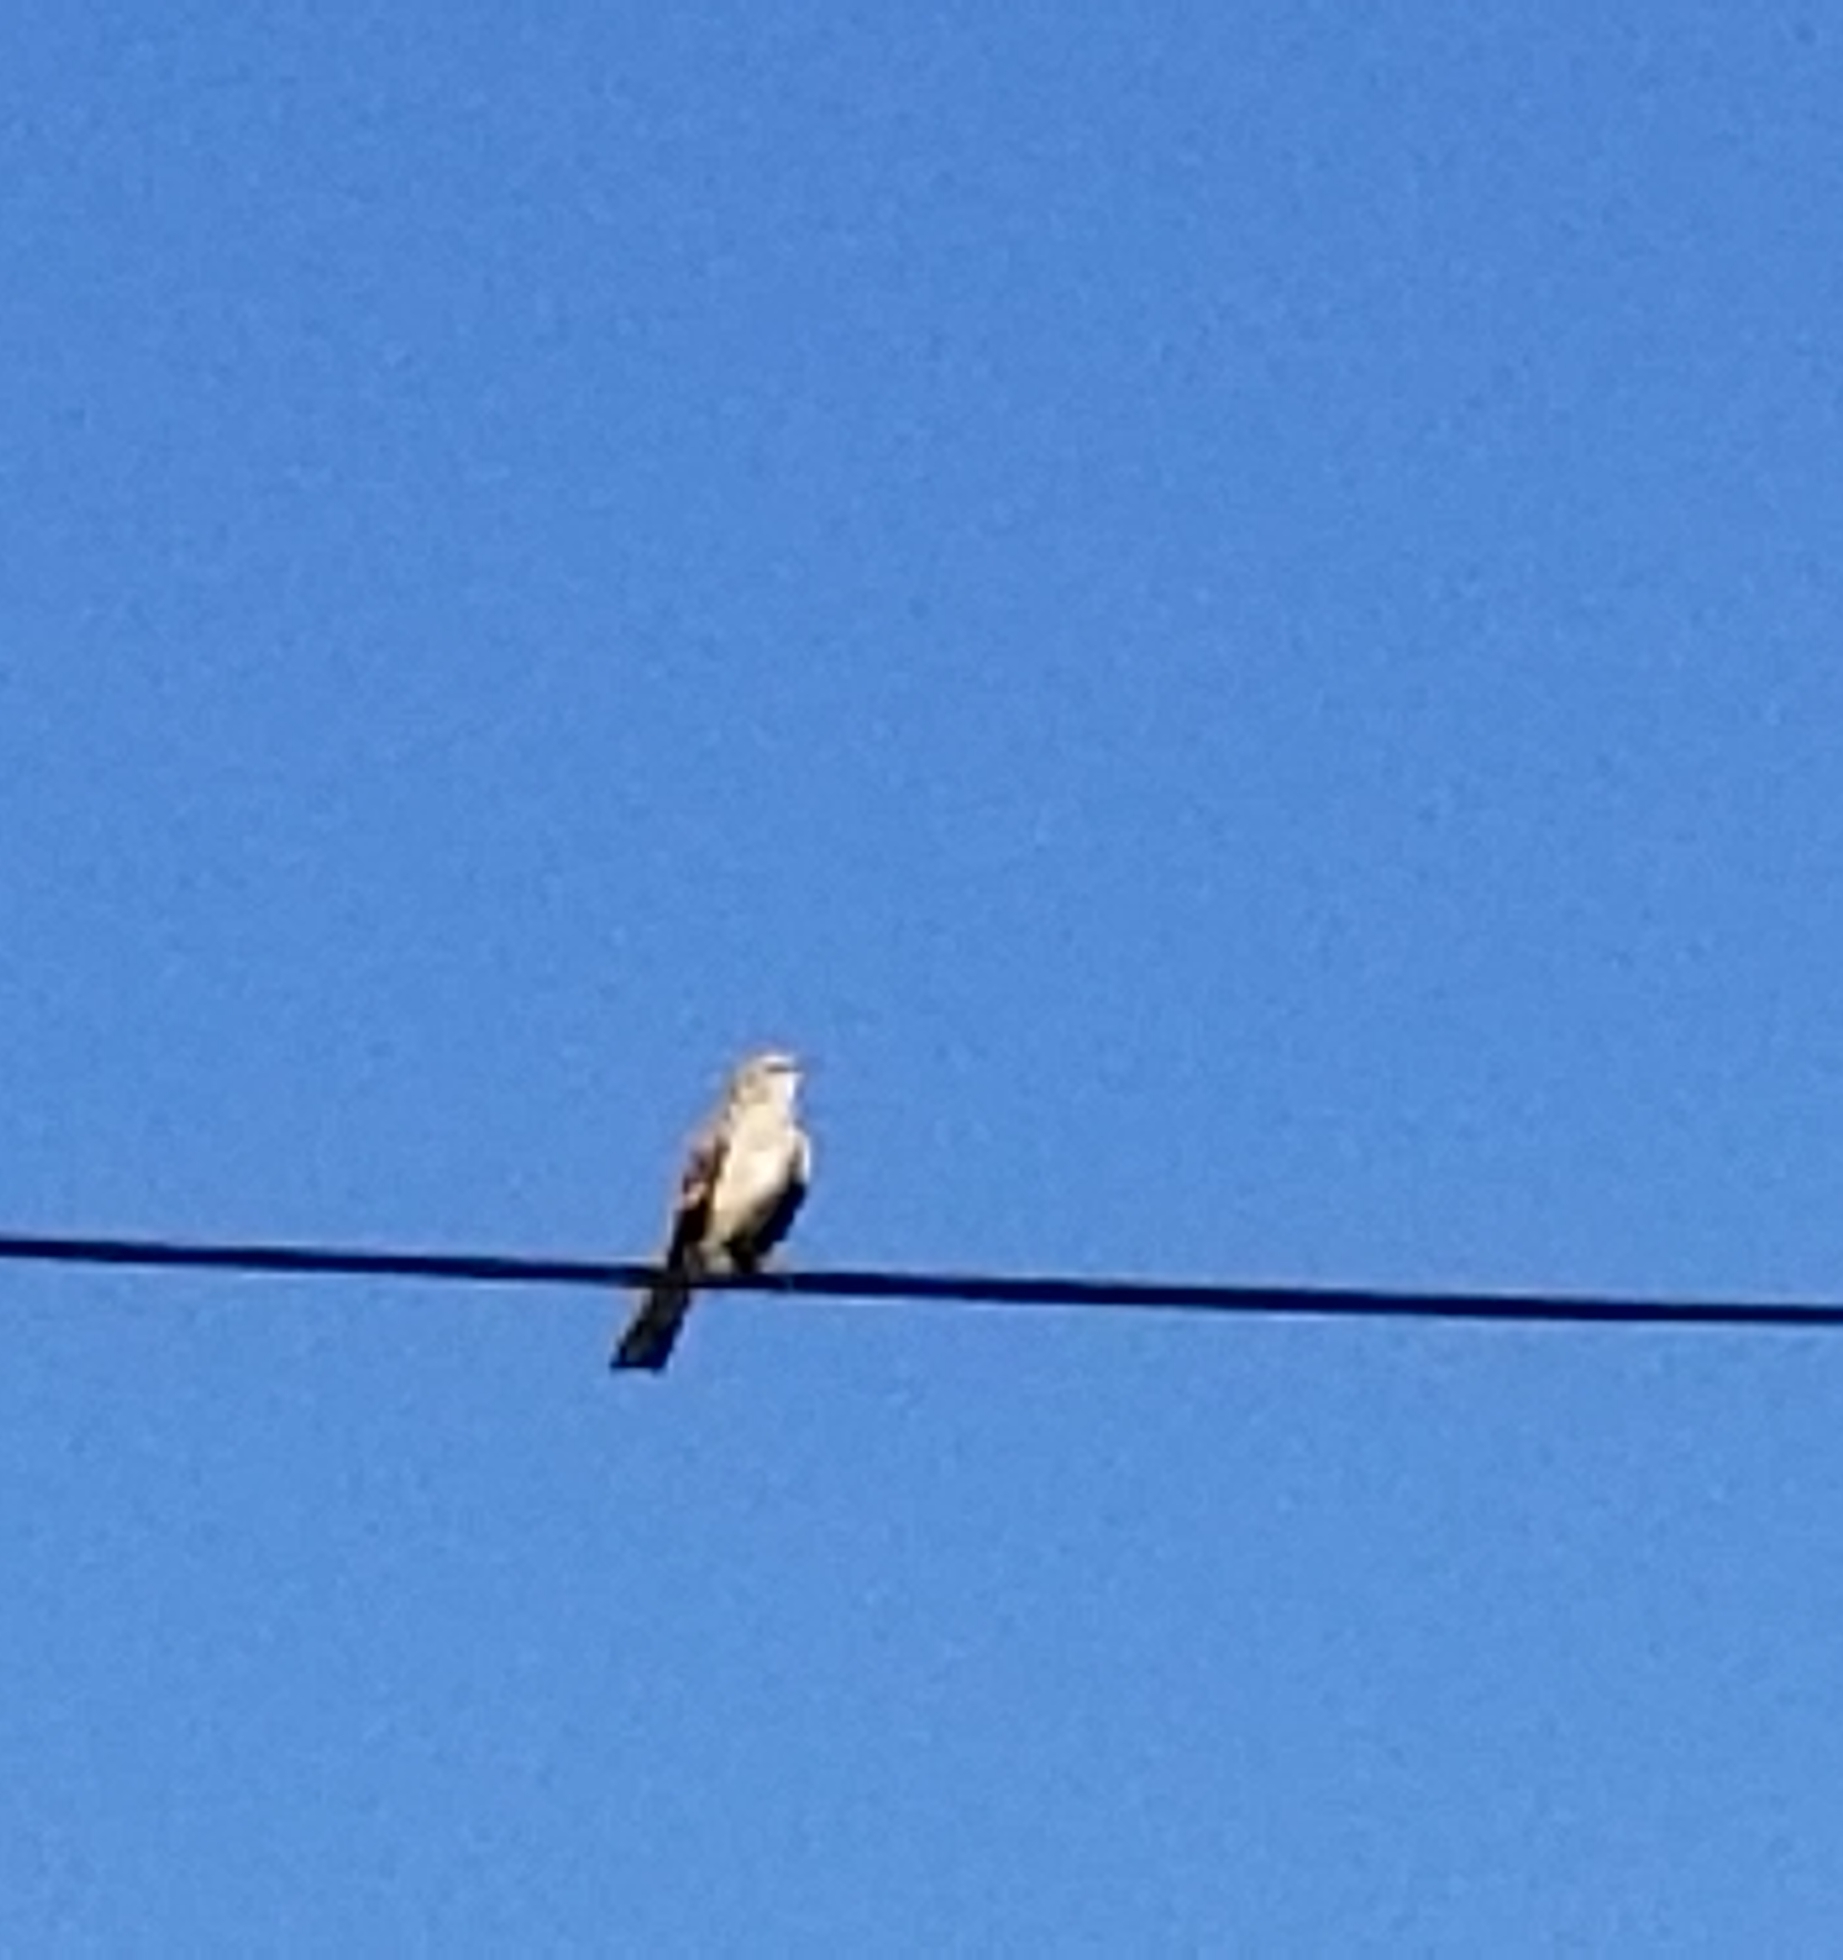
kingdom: Animalia
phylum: Chordata
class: Aves
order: Passeriformes
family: Mimidae
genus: Mimus
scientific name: Mimus polyglottos
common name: Northern mockingbird
